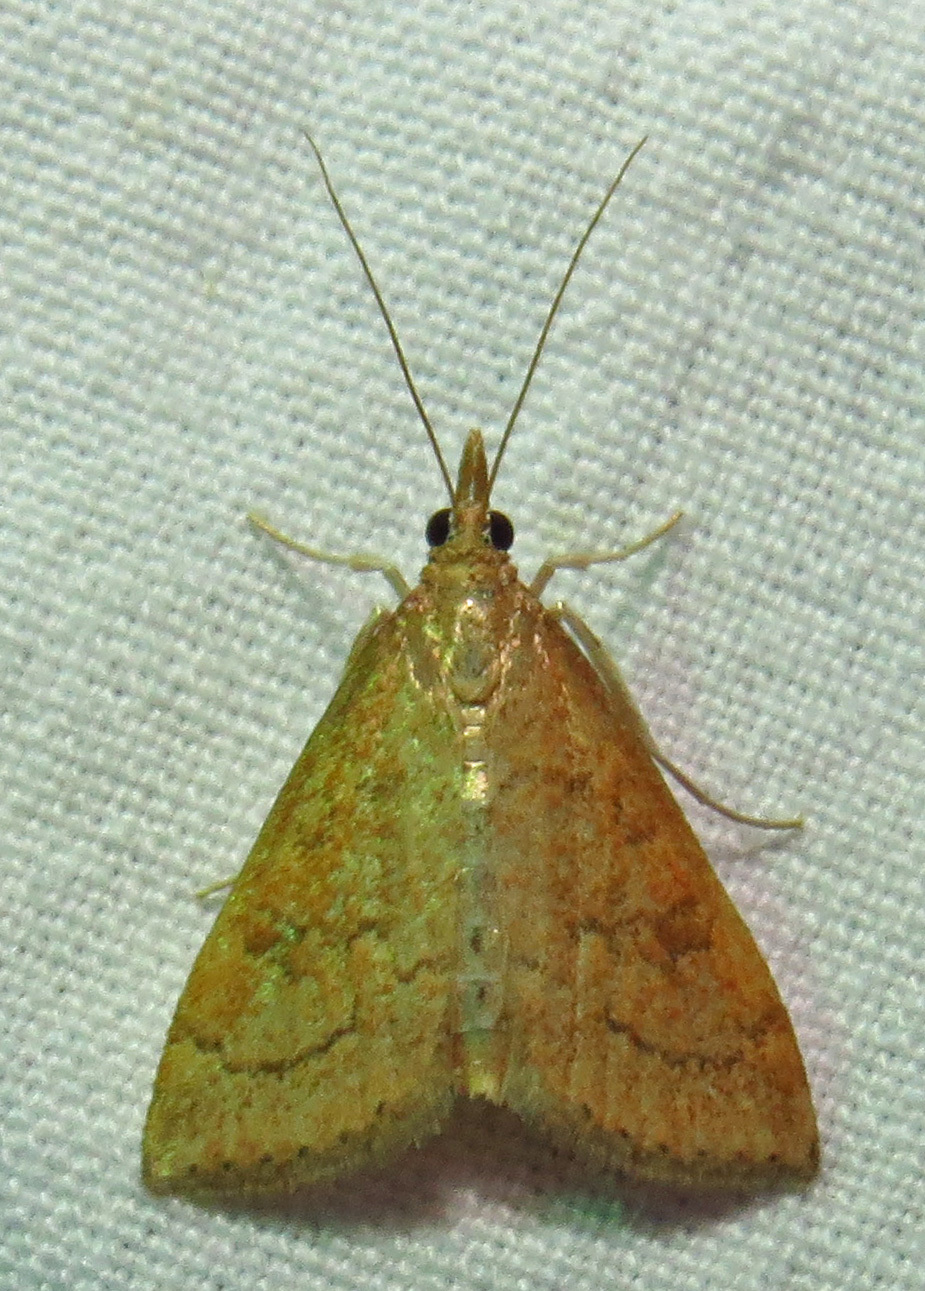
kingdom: Animalia
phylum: Arthropoda
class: Insecta
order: Lepidoptera
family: Crambidae
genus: Udea
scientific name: Udea rubigalis
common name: Celery leaftier moth
